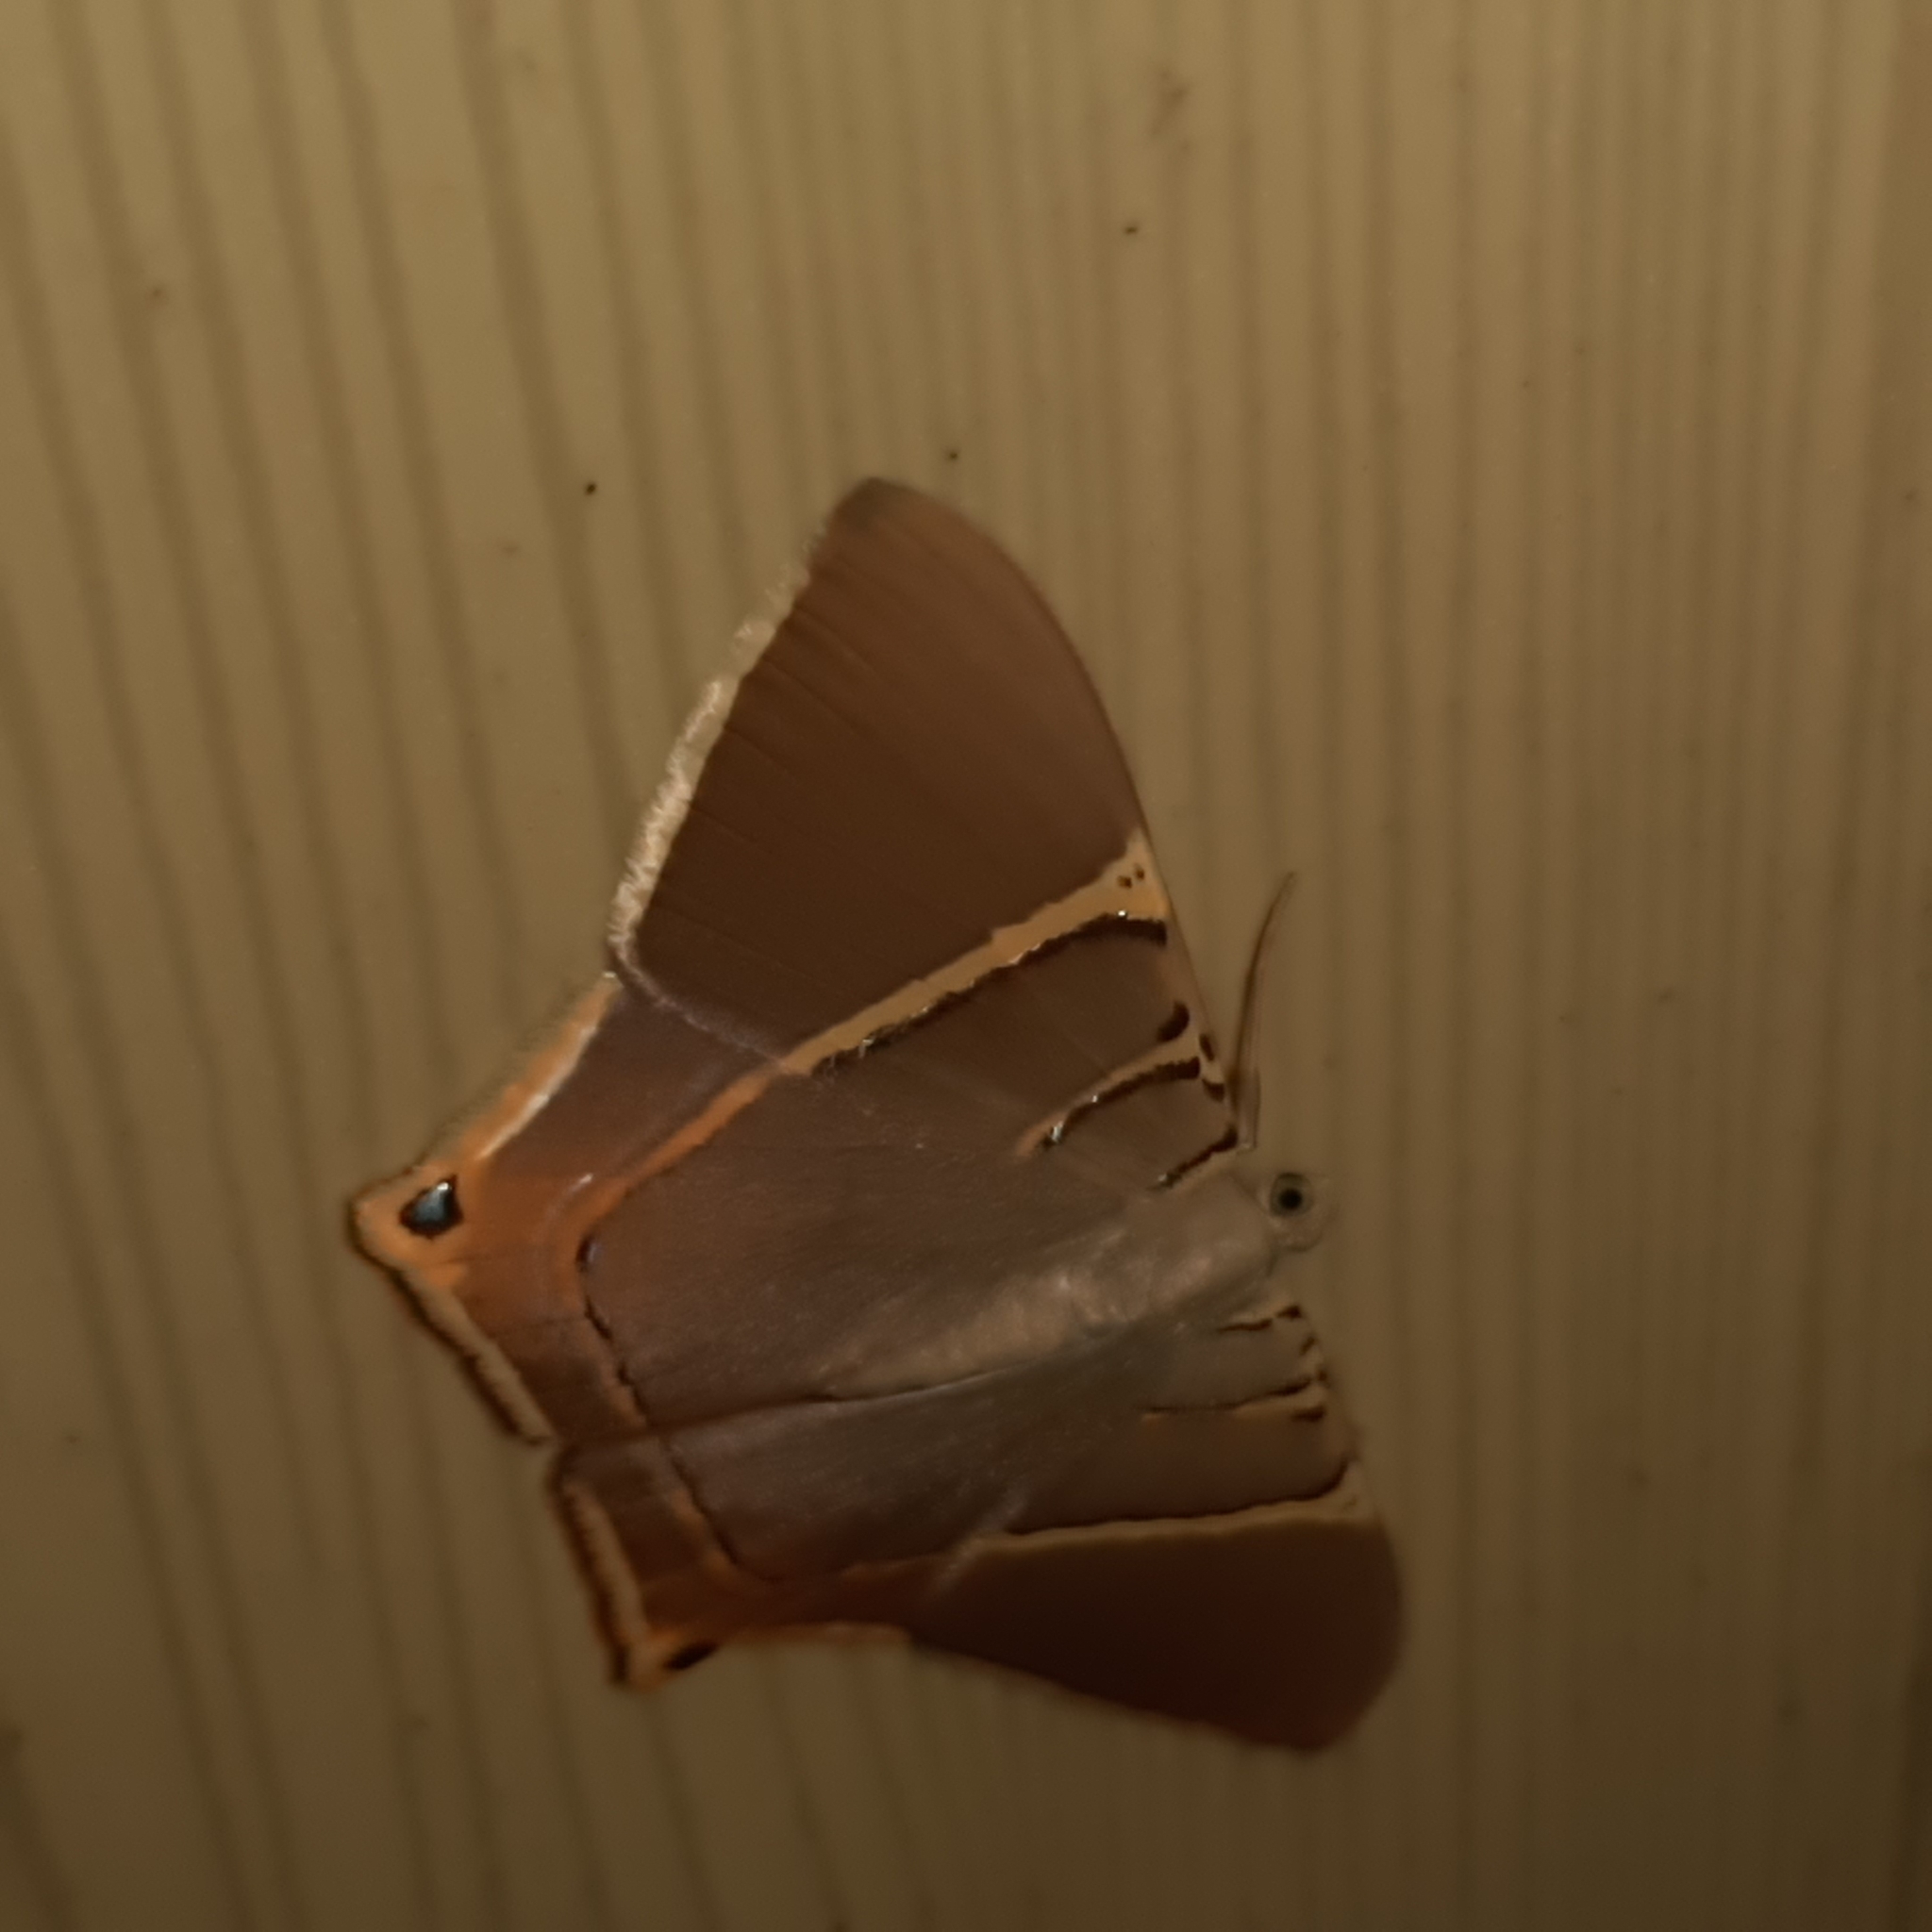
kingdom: Animalia
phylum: Arthropoda
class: Insecta
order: Lepidoptera
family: Geometridae
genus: Phrygionis
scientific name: Phrygionis polita
